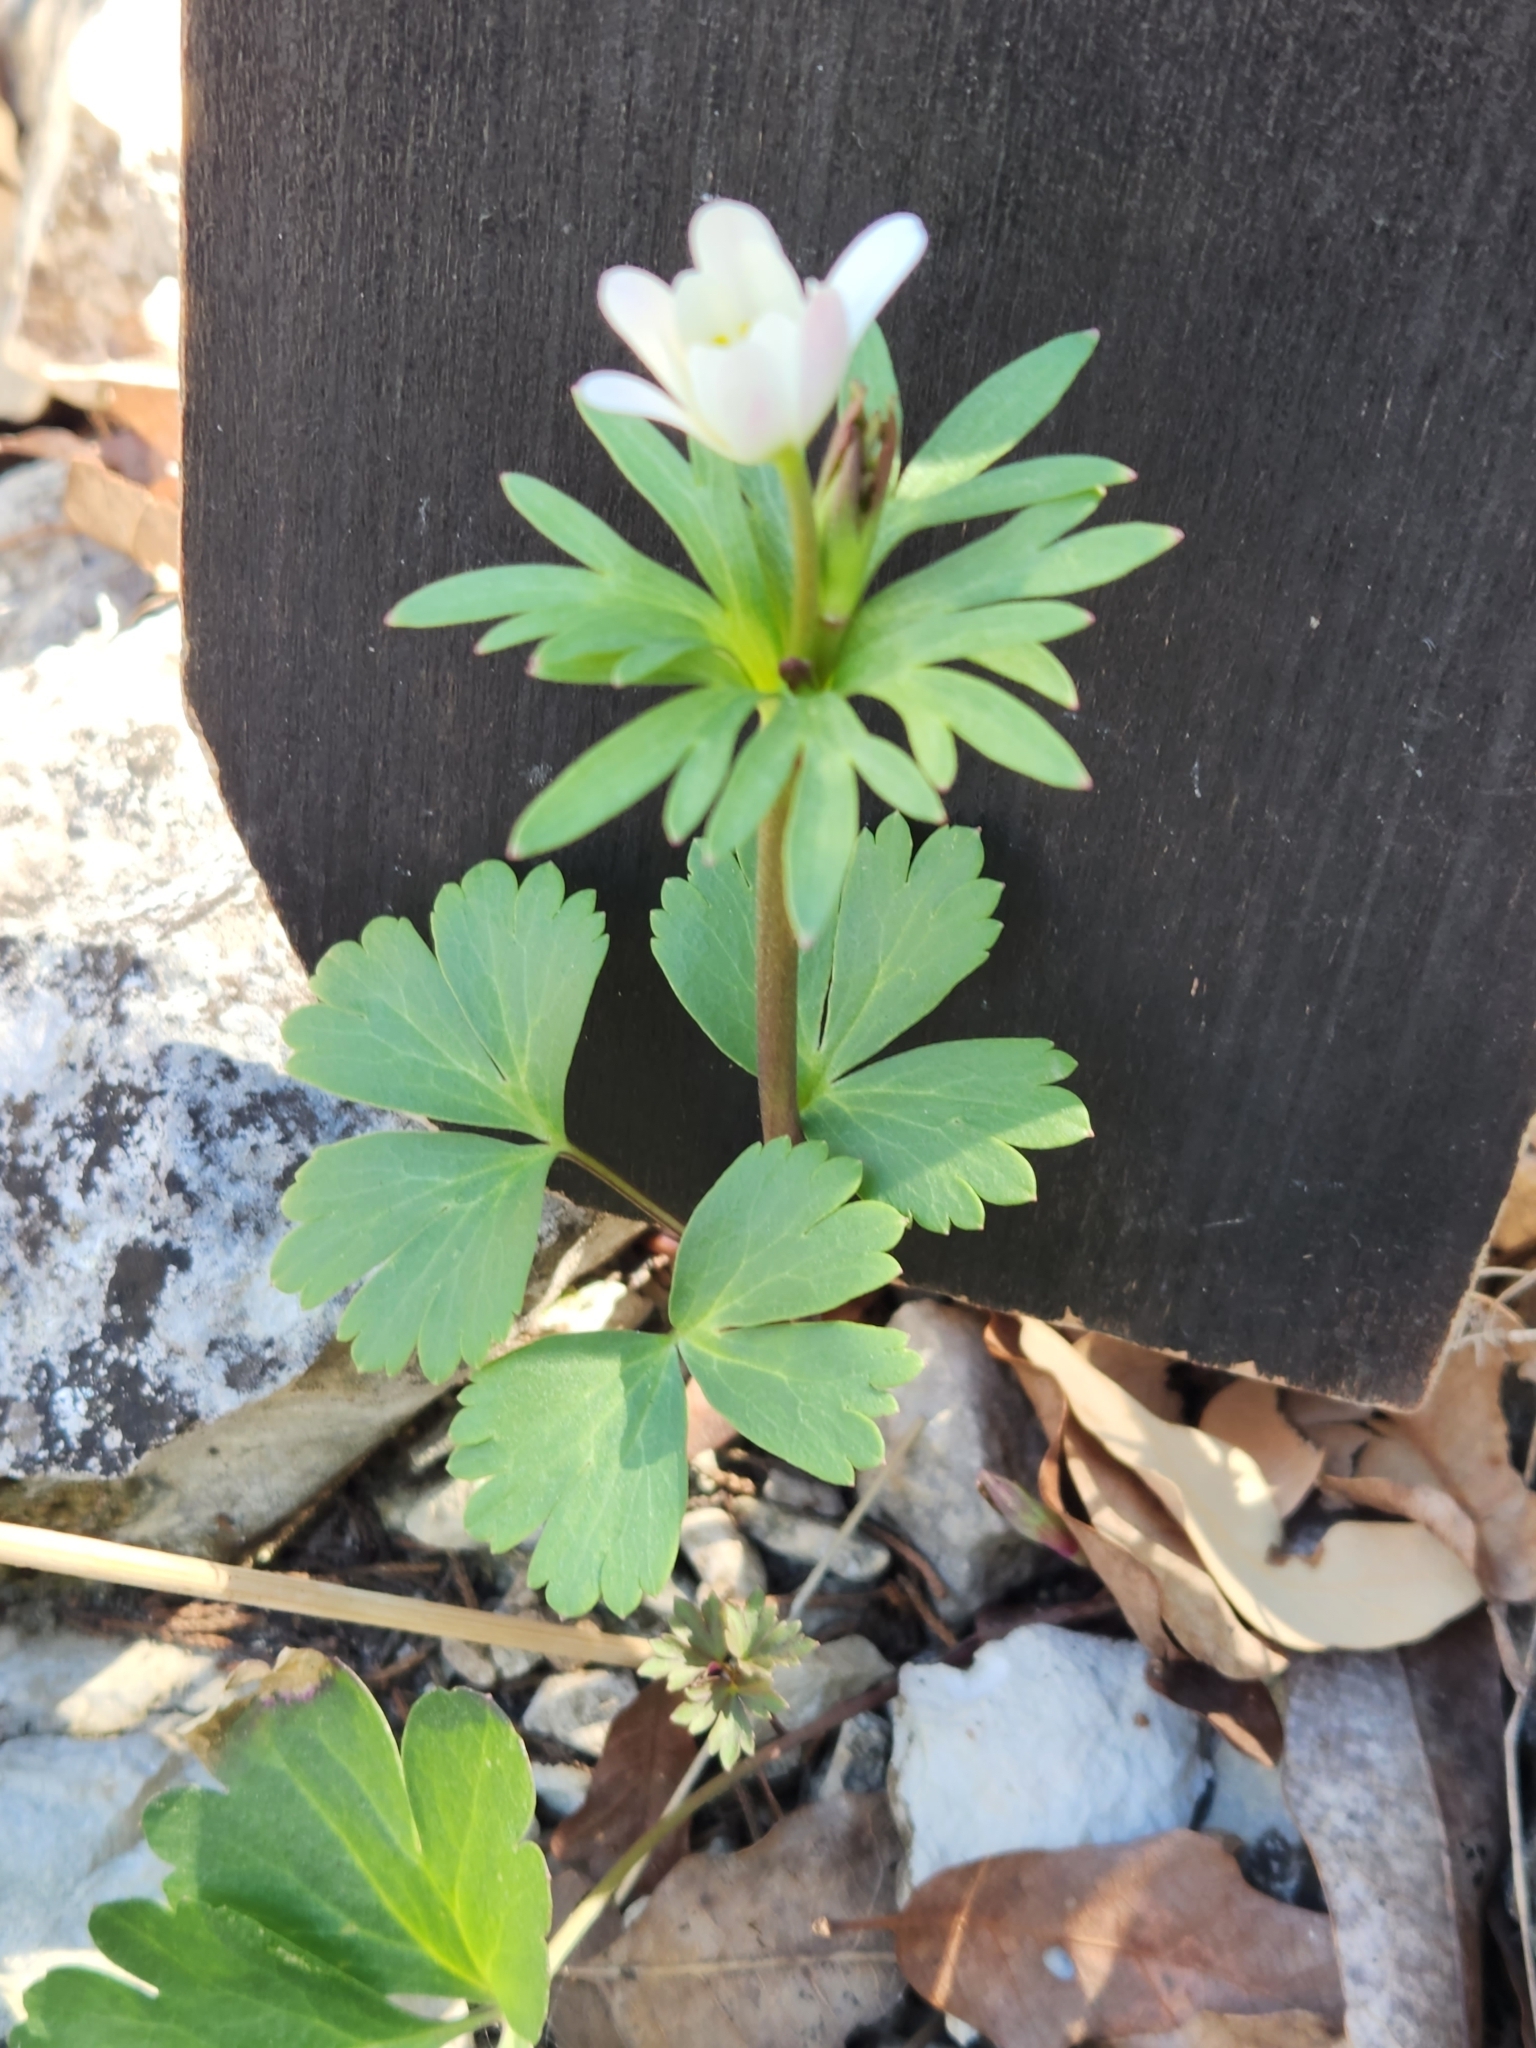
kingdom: Plantae
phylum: Tracheophyta
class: Magnoliopsida
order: Ranunculales
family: Ranunculaceae
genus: Anemone
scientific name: Anemone edwardsiana
